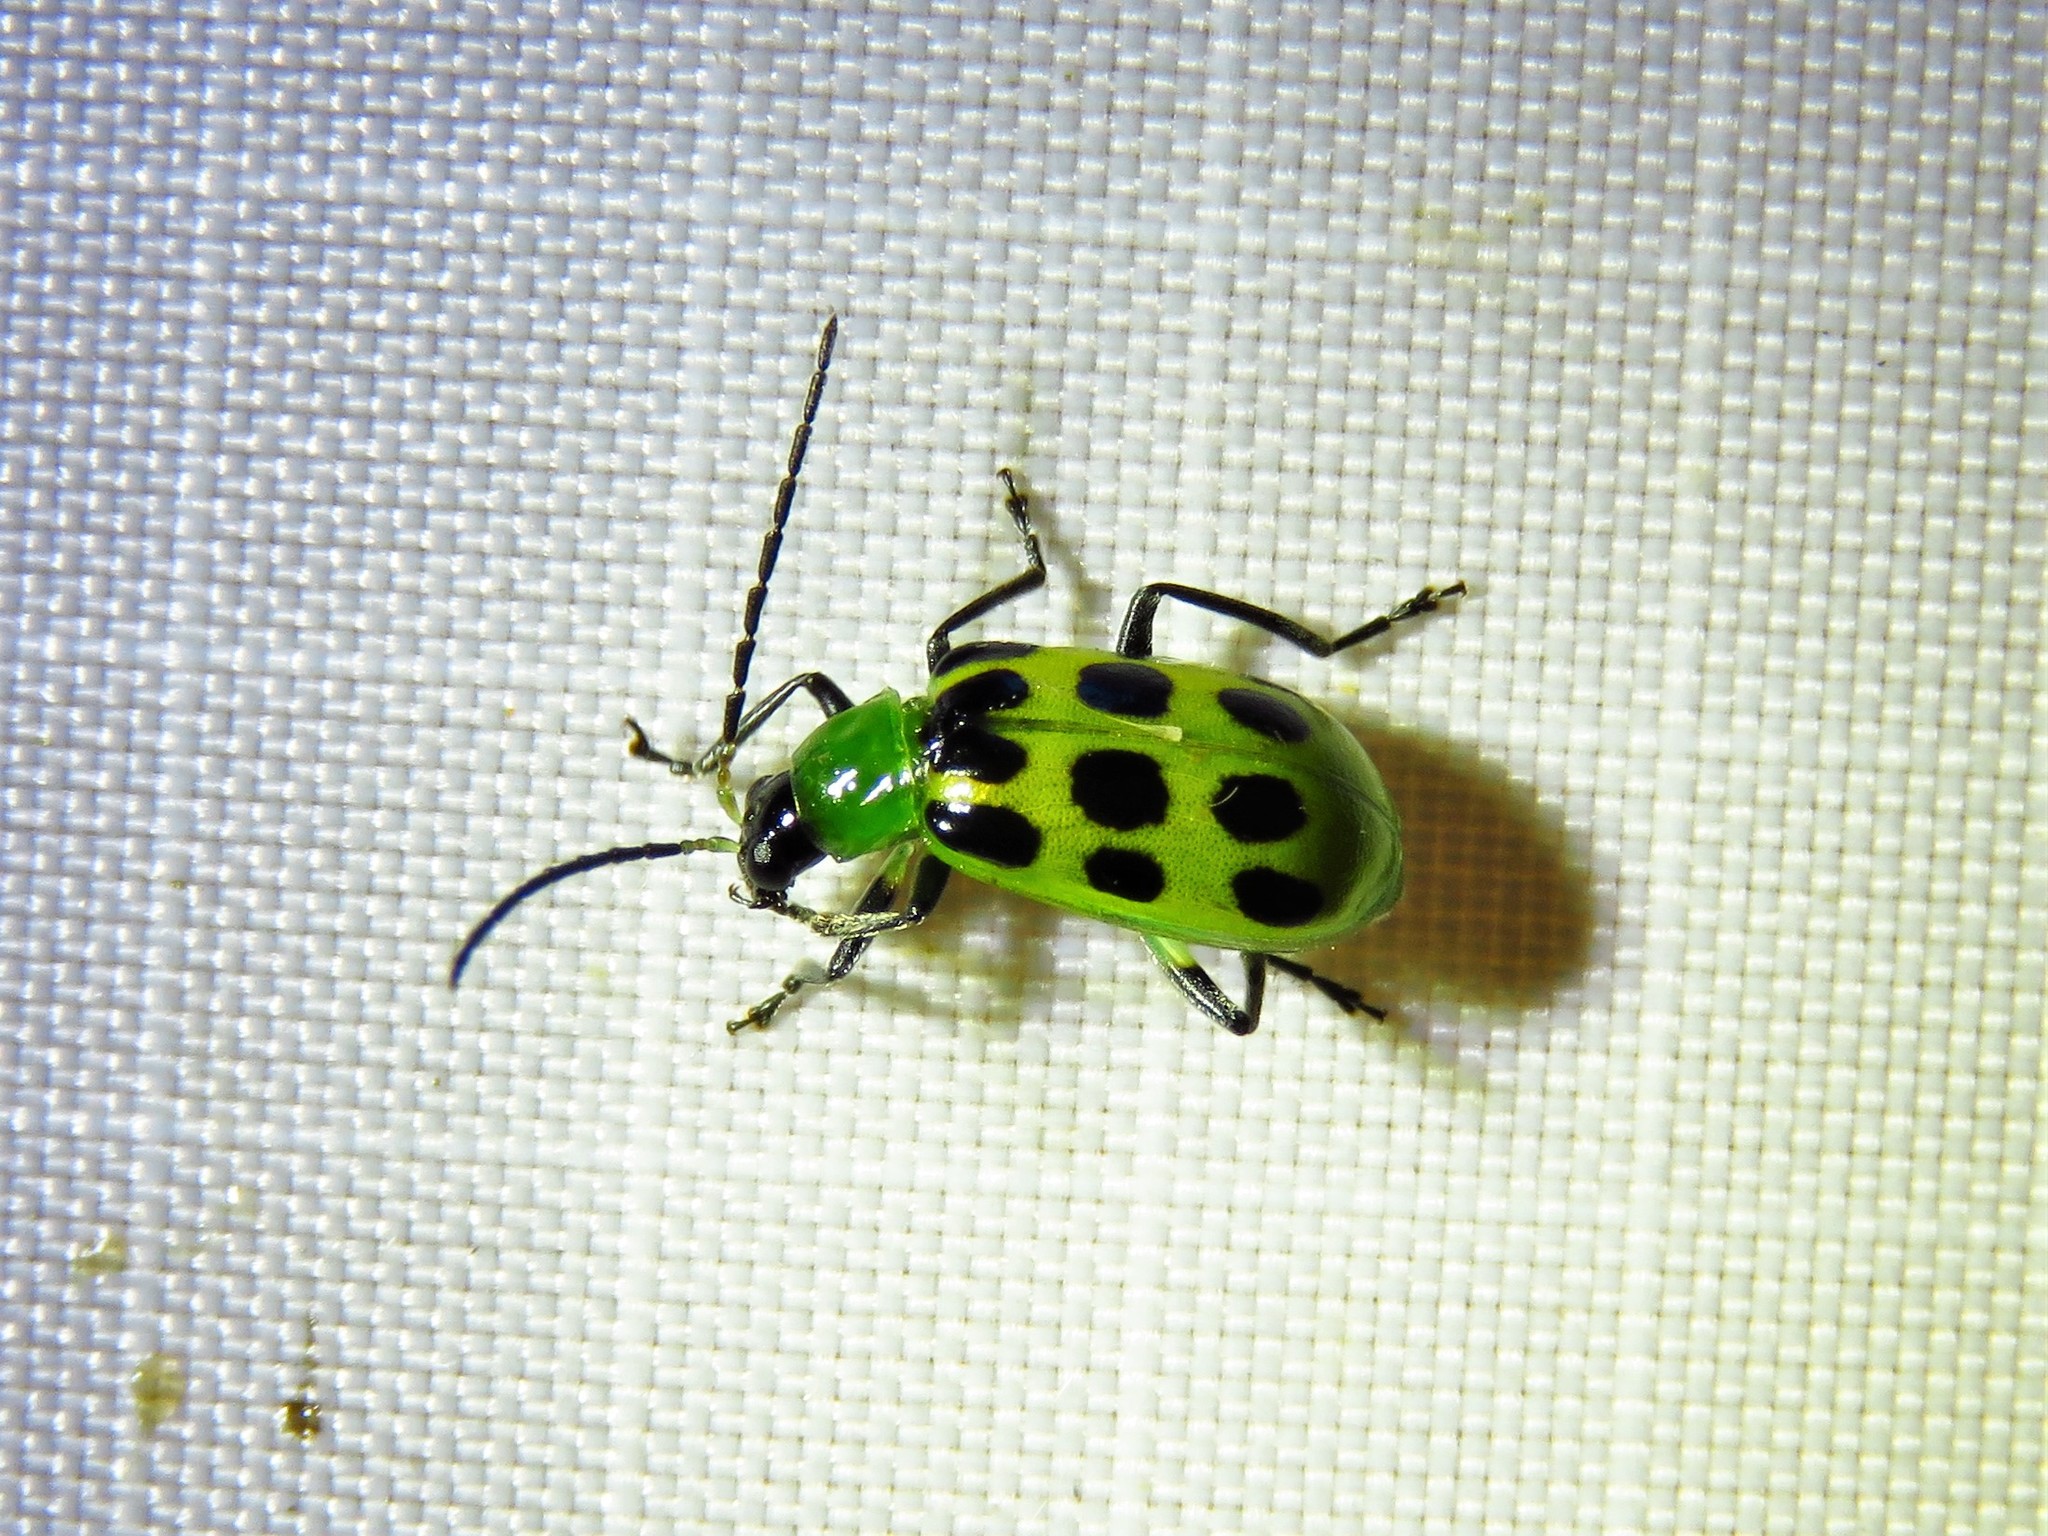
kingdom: Animalia
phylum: Arthropoda
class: Insecta
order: Coleoptera
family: Chrysomelidae
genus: Diabrotica
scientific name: Diabrotica undecimpunctata
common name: Spotted cucumber beetle
